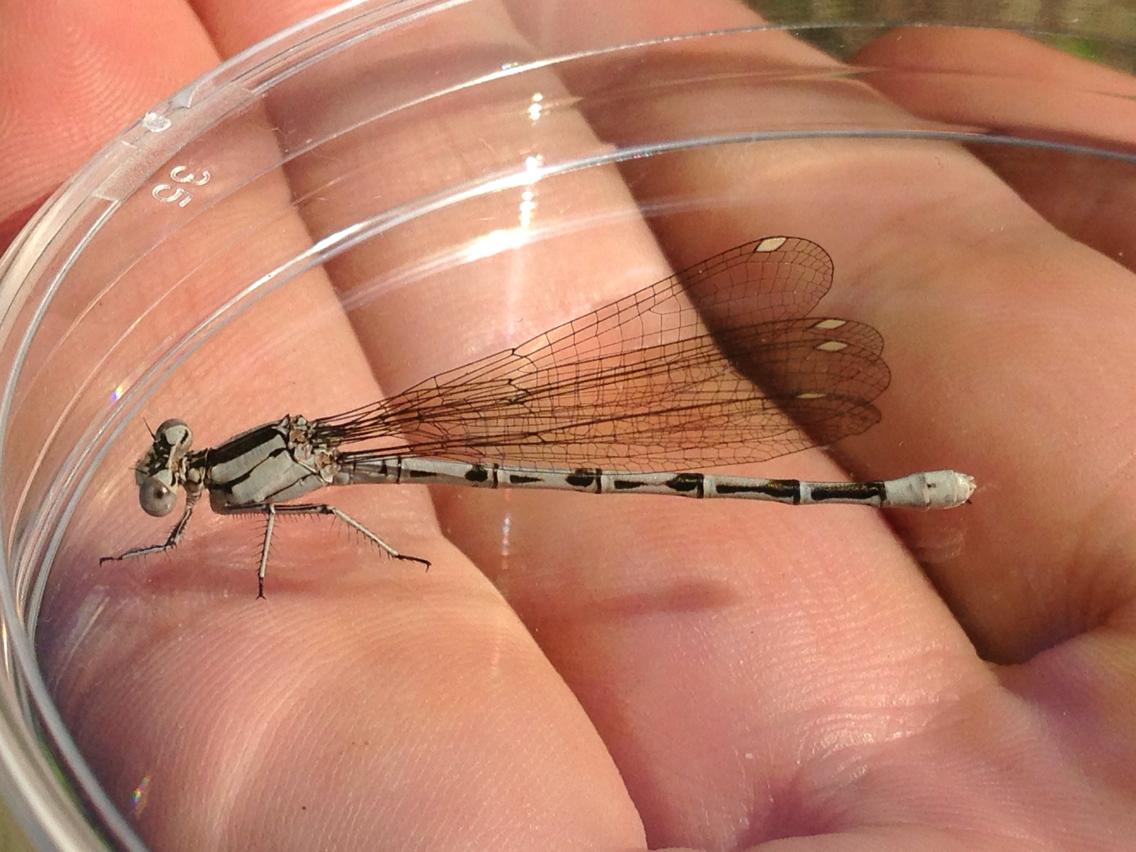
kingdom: Animalia
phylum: Arthropoda
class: Insecta
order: Odonata
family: Coenagrionidae
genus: Argia
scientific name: Argia vivida
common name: Vivid dancer
